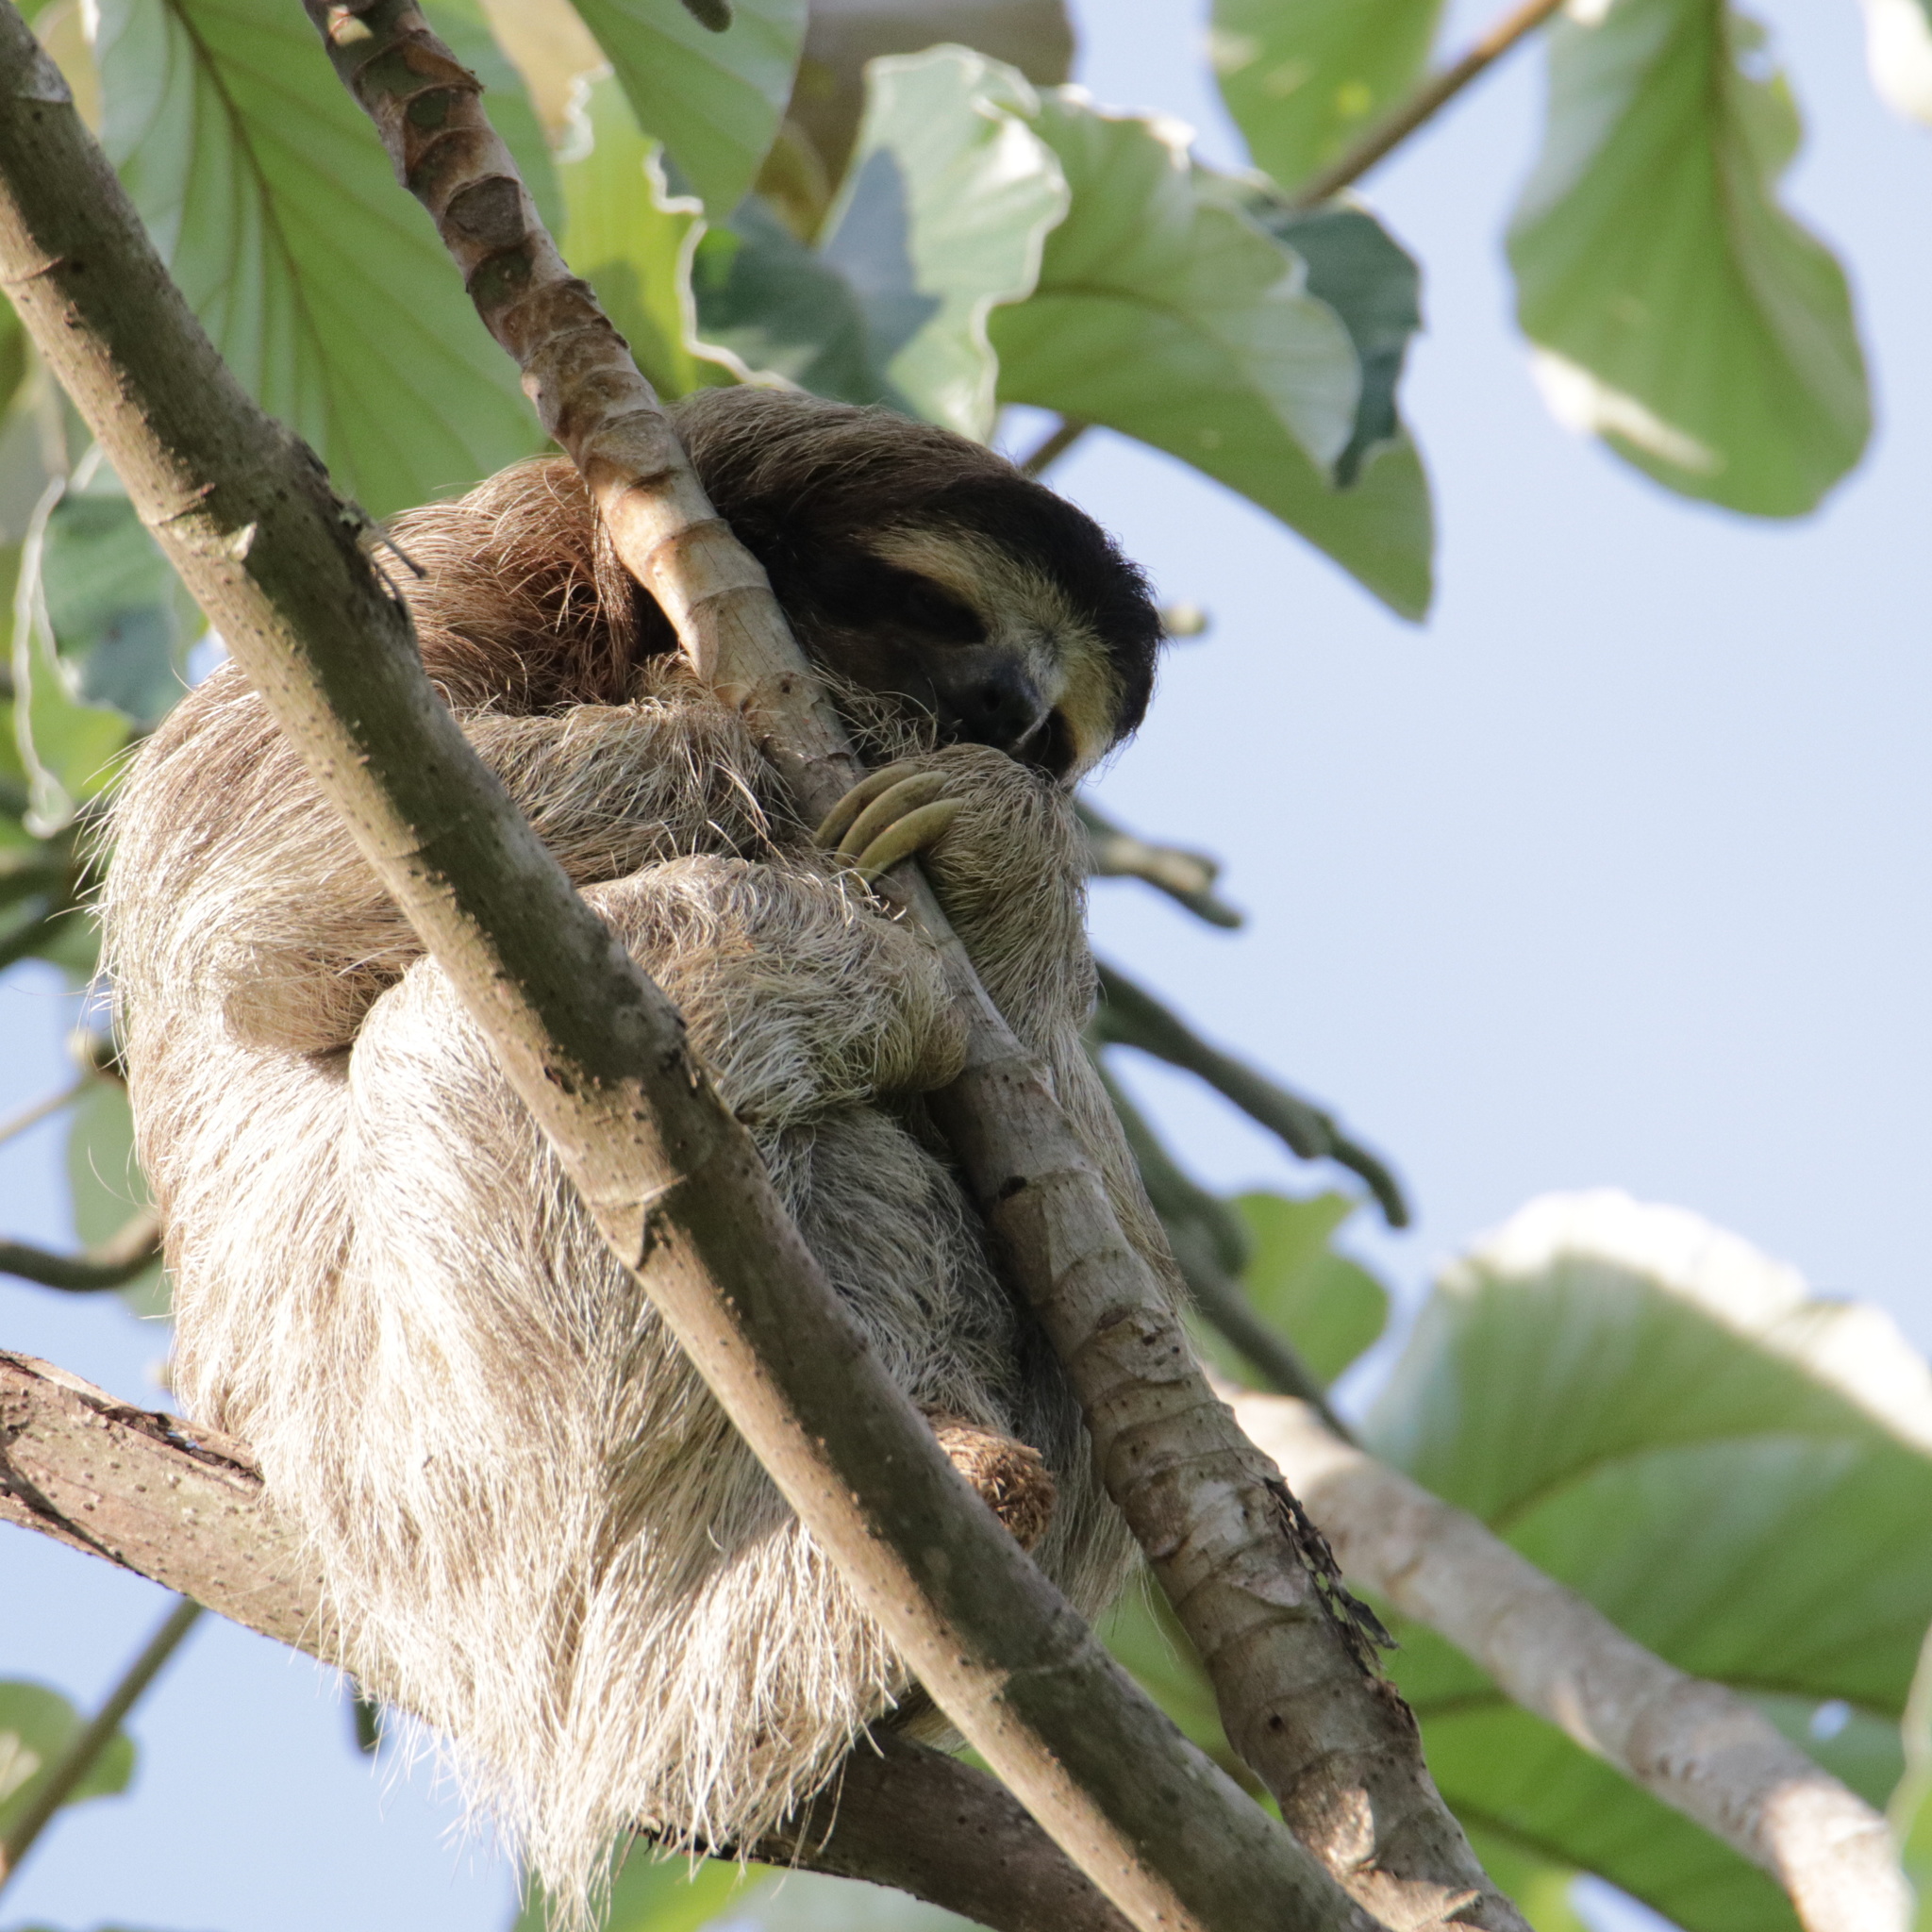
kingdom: Animalia
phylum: Chordata
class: Mammalia
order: Pilosa
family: Bradypodidae
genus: Bradypus
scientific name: Bradypus variegatus
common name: Brown-throated three-toed sloth
